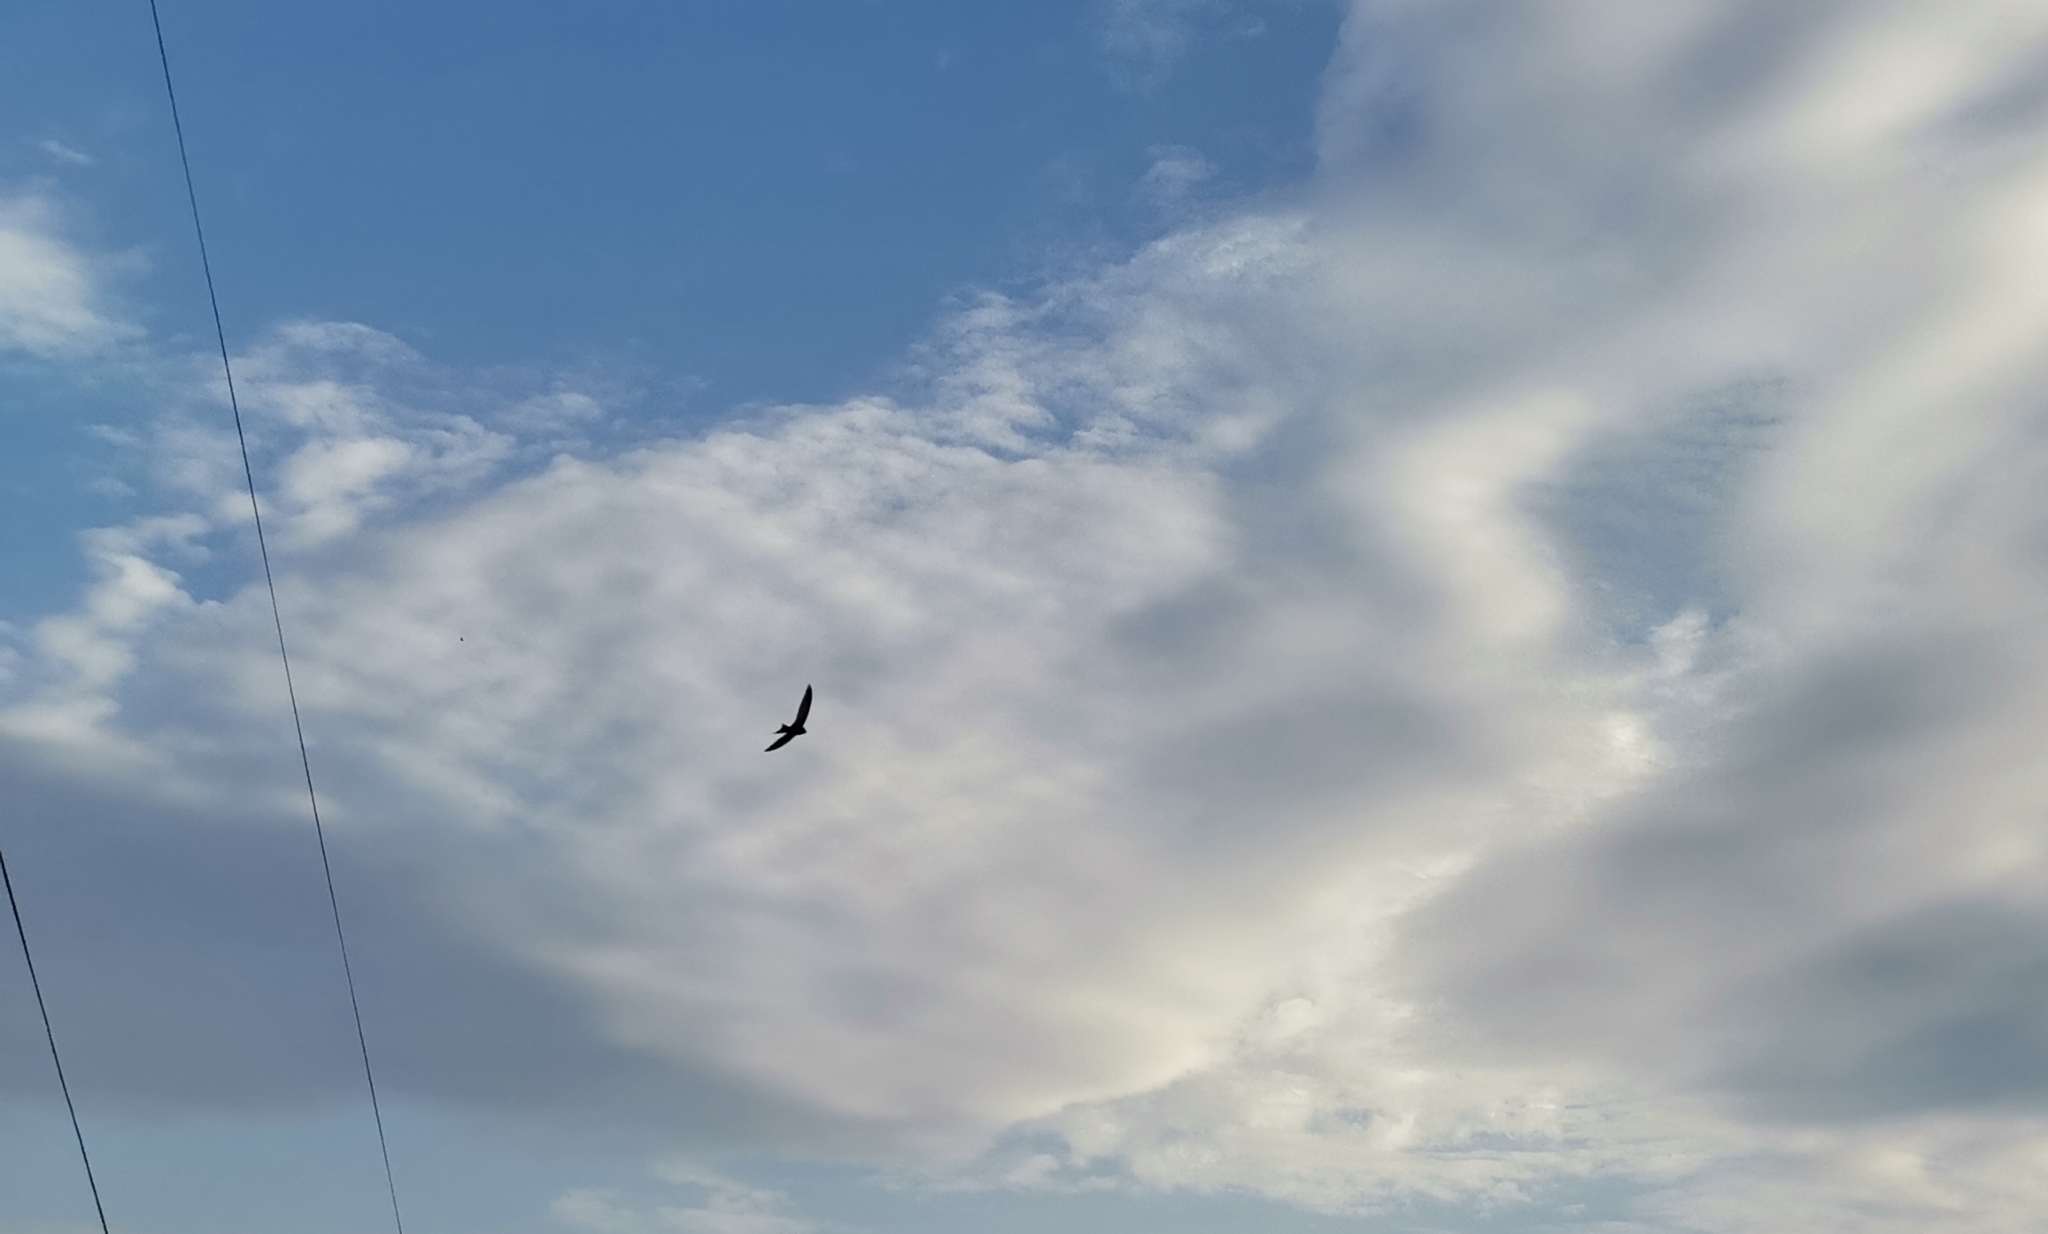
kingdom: Animalia
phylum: Chordata
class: Aves
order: Apodiformes
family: Apodidae
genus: Apus
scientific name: Apus apus
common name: Common swift
